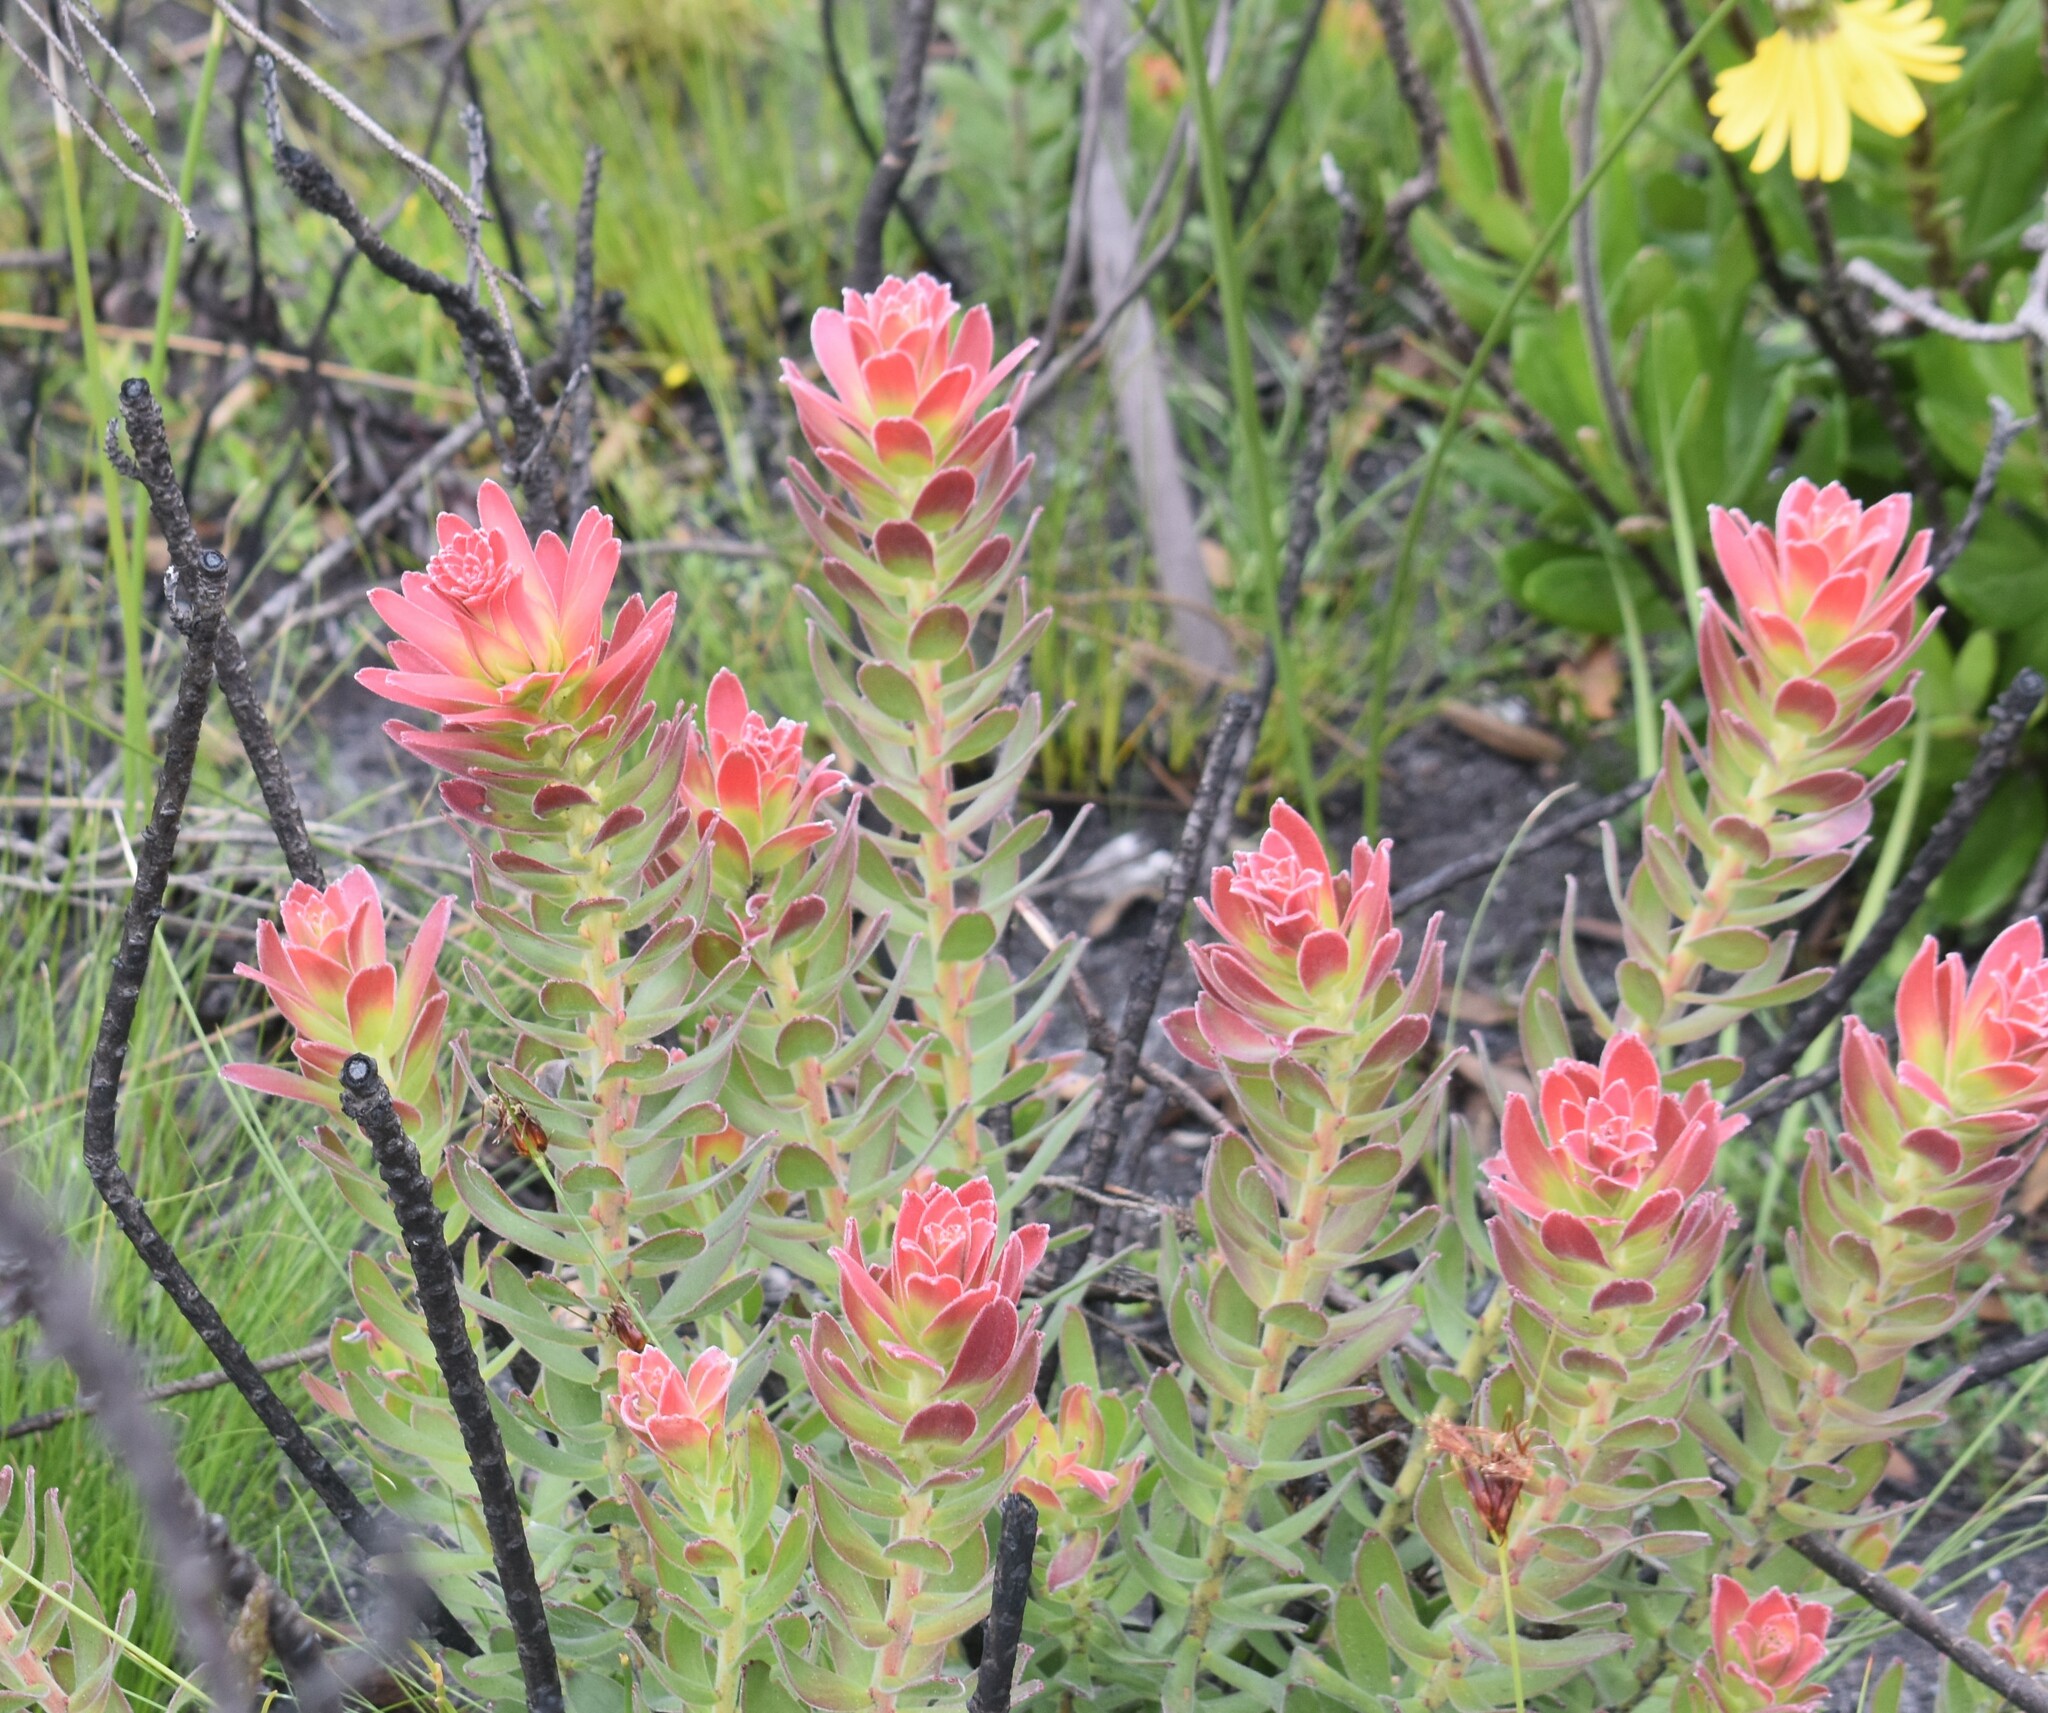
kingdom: Plantae
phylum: Tracheophyta
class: Magnoliopsida
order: Proteales
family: Proteaceae
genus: Mimetes
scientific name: Mimetes cucullatus
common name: Common pagoda
